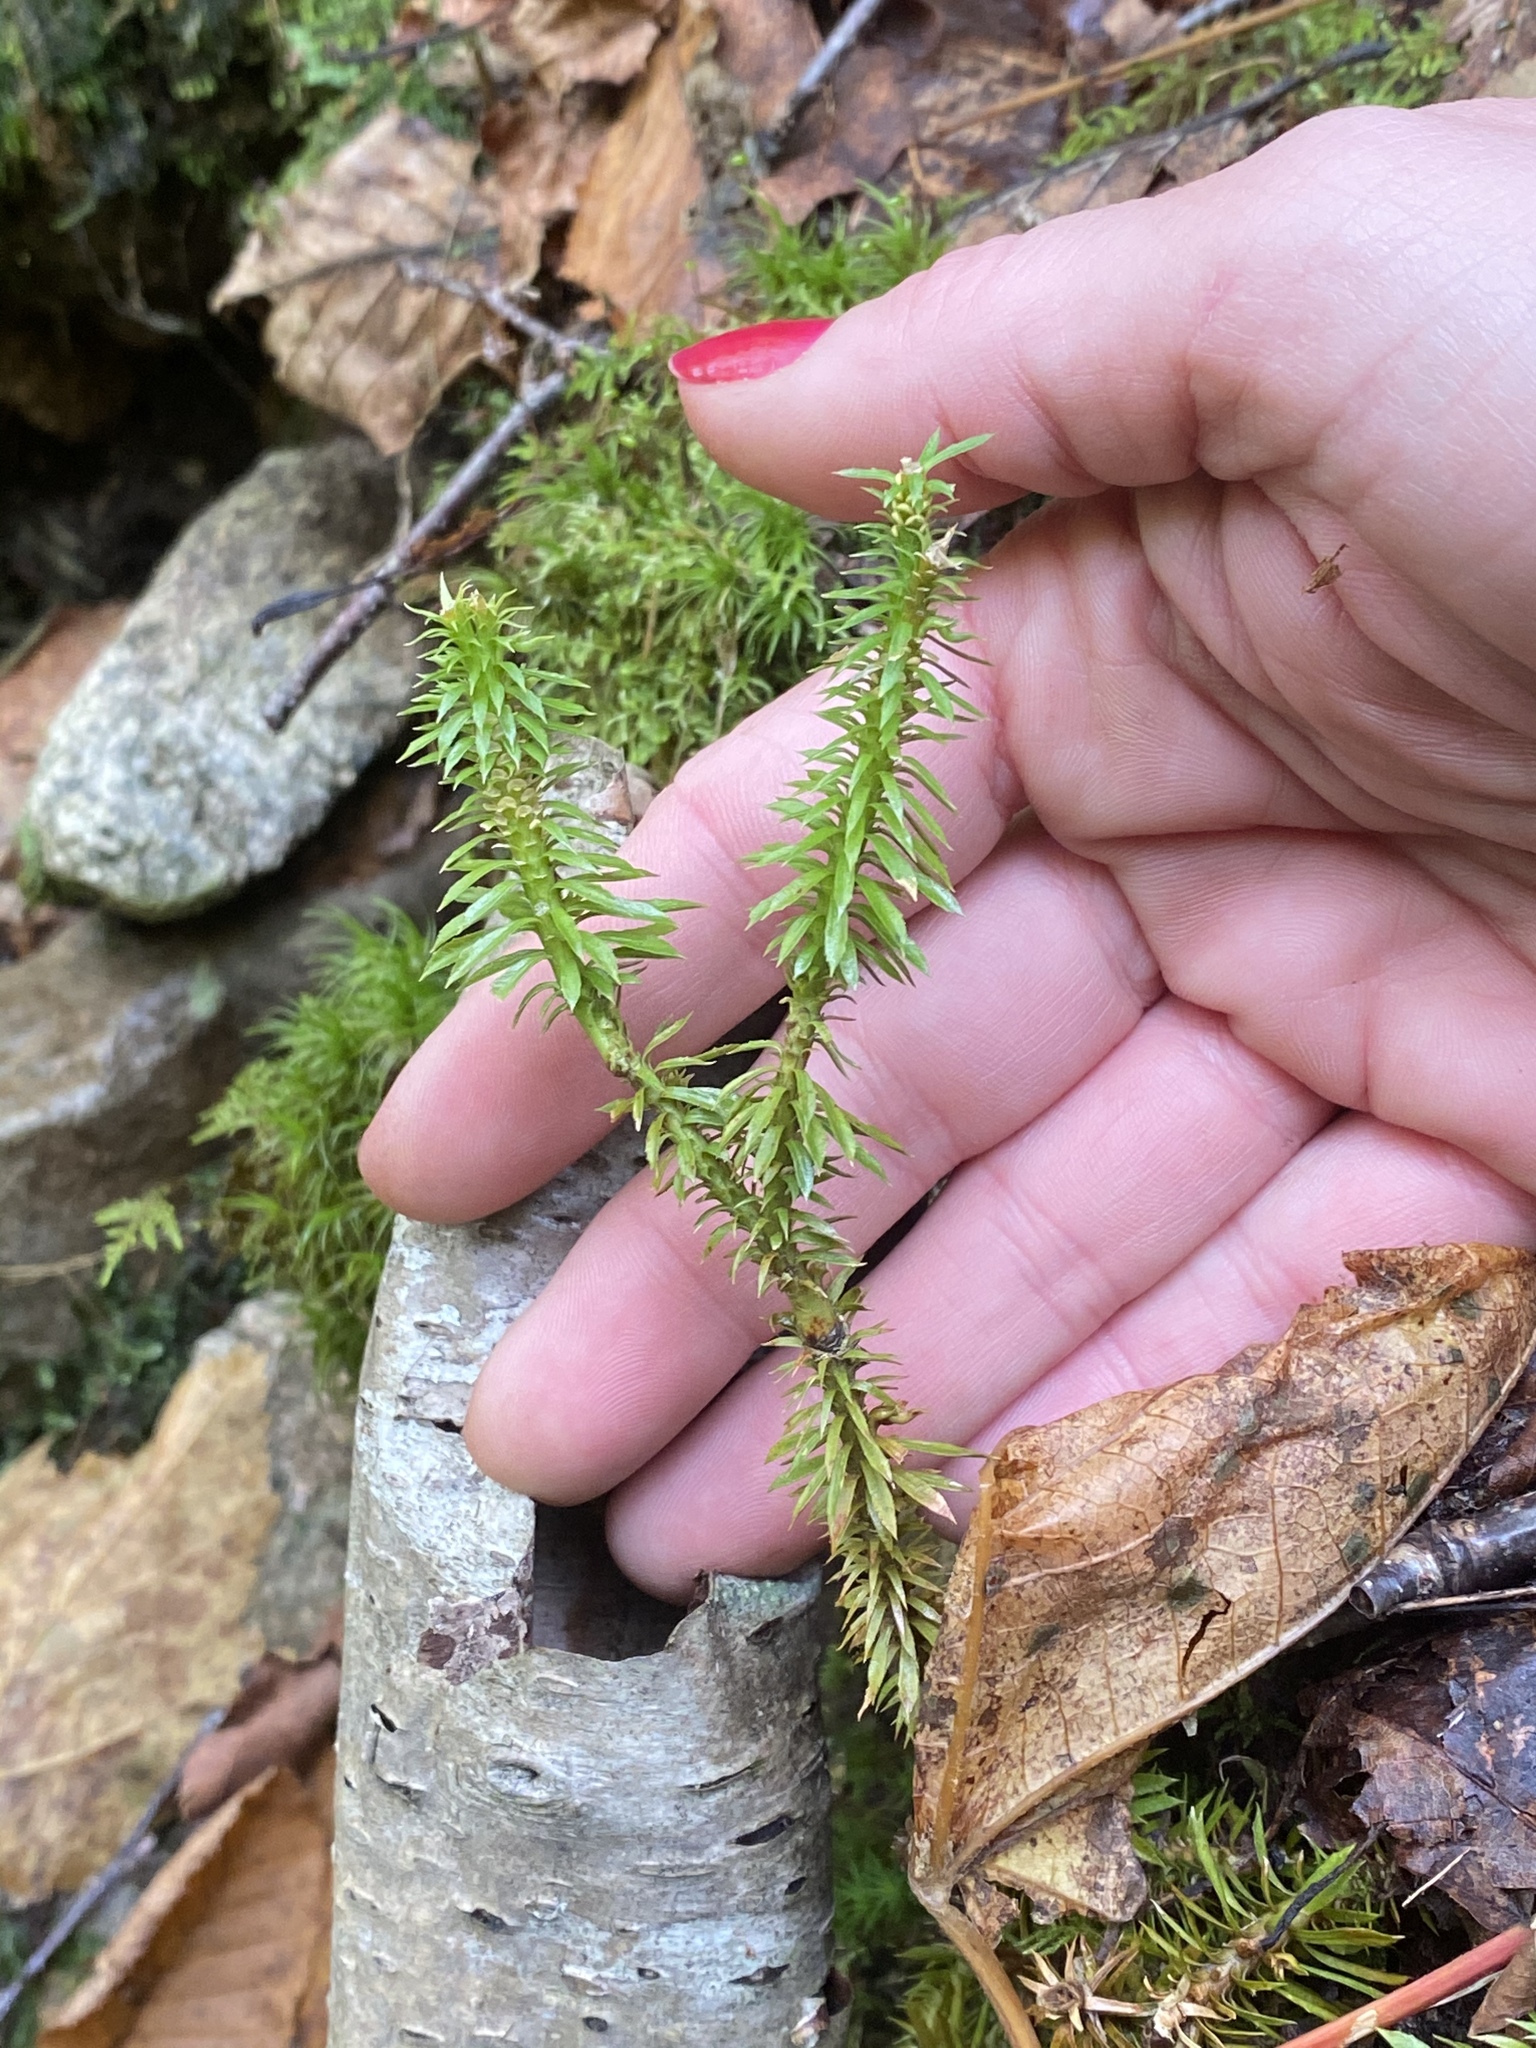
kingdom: Plantae
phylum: Tracheophyta
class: Lycopodiopsida
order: Lycopodiales
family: Lycopodiaceae
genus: Huperzia
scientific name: Huperzia lucidula
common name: Shining clubmoss
